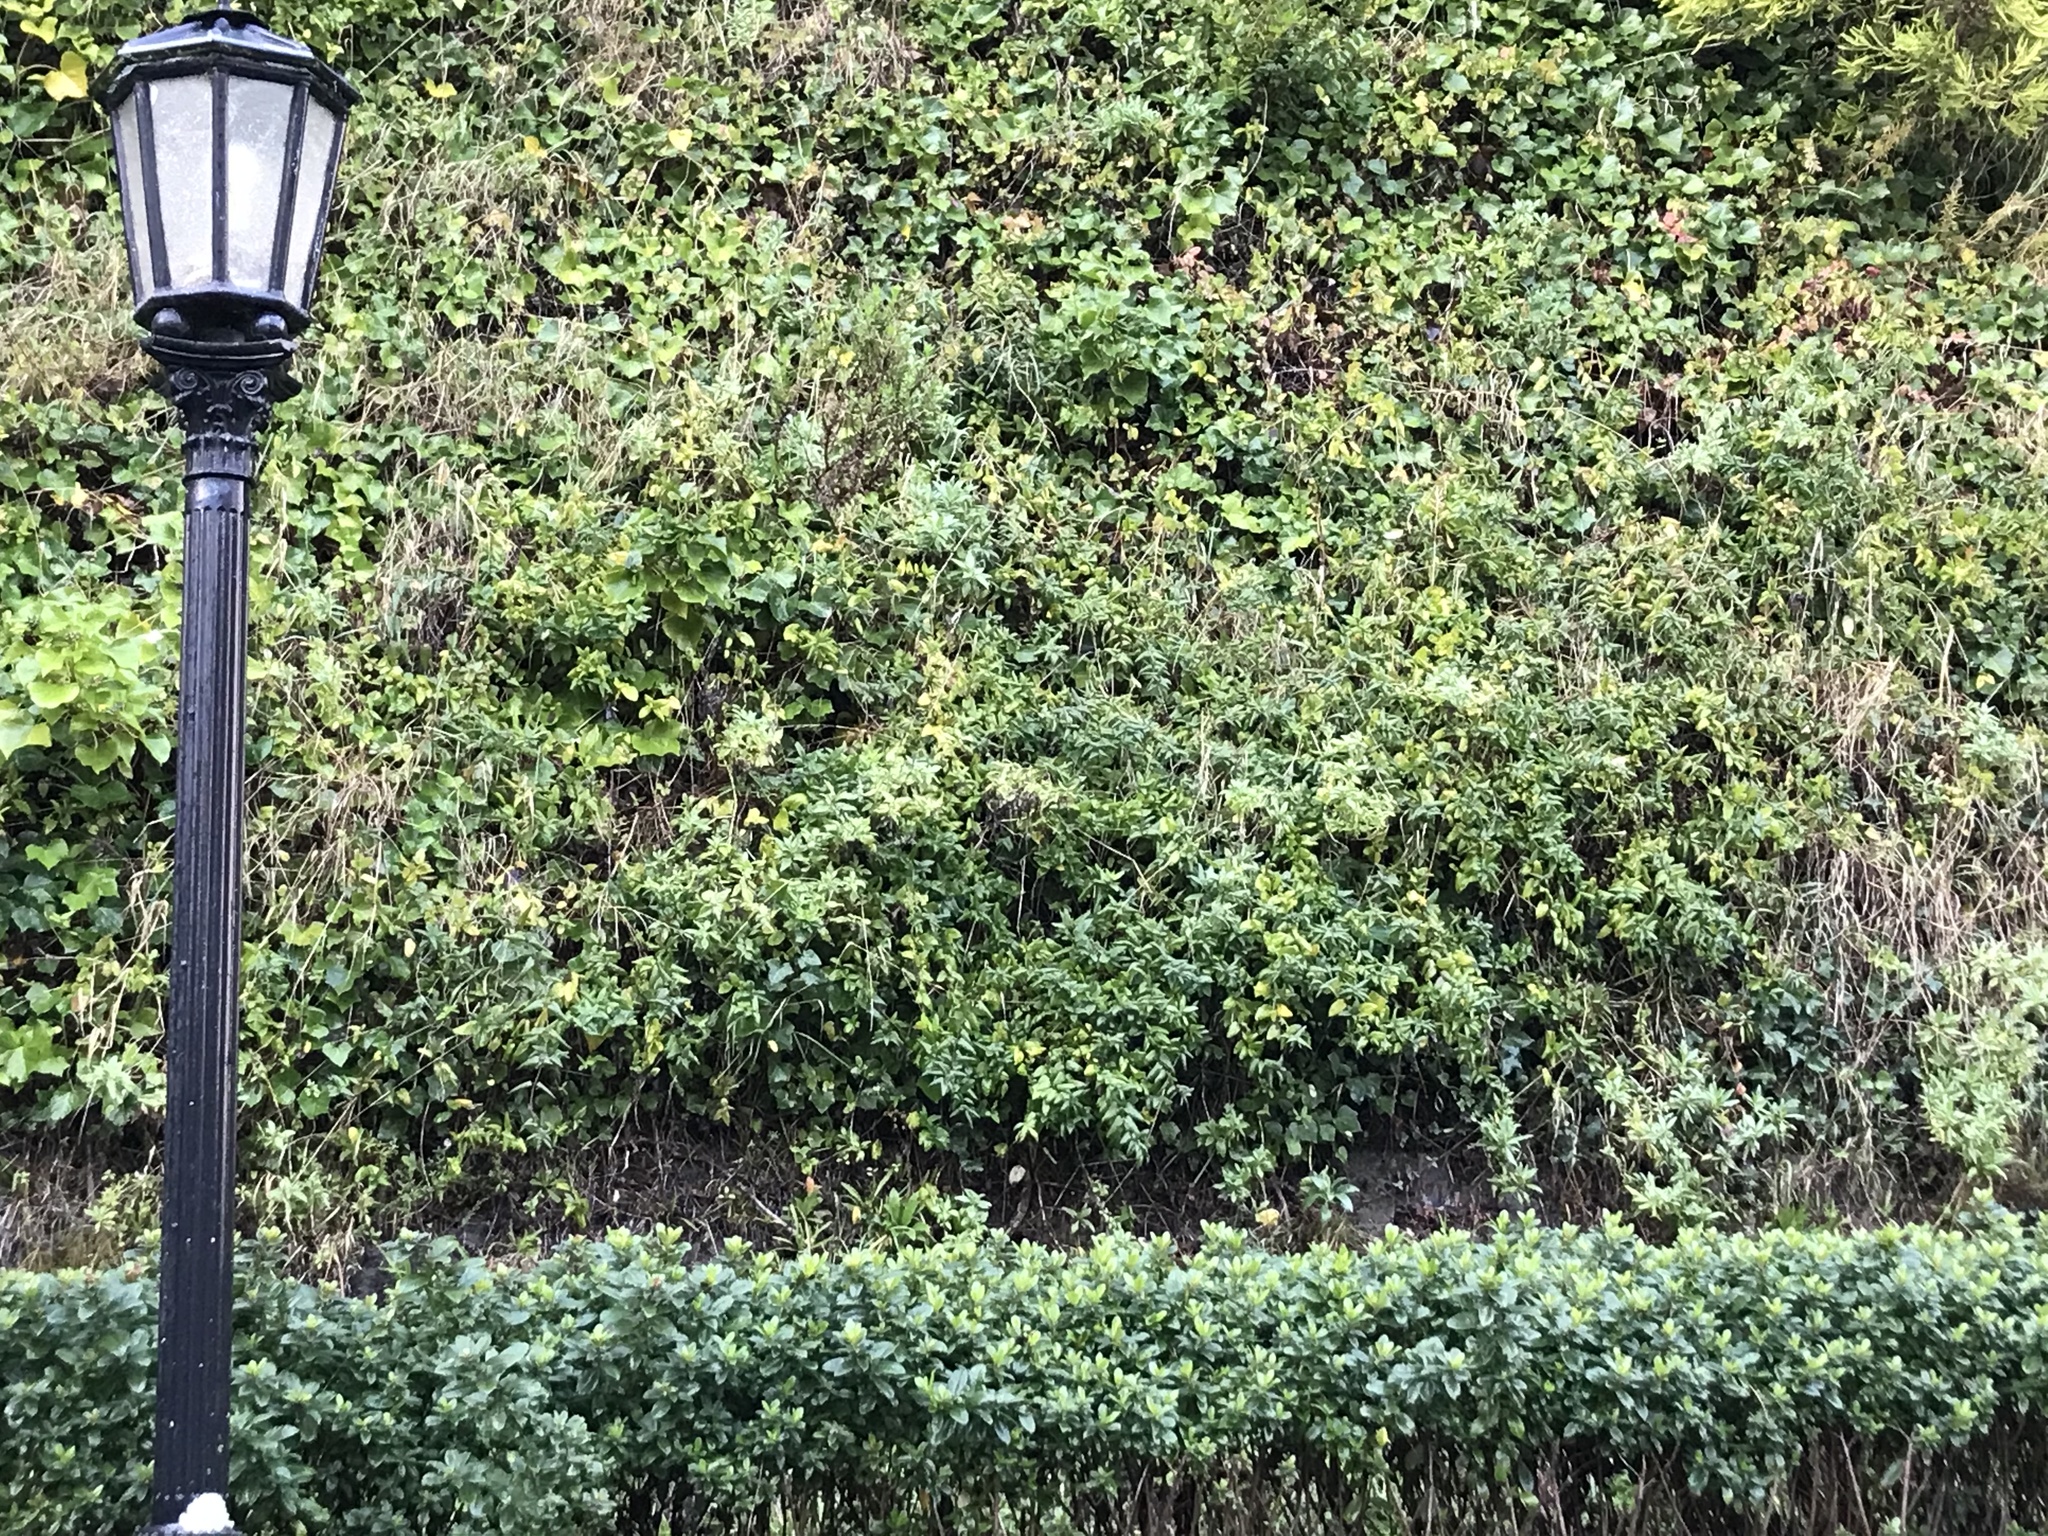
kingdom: Plantae
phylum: Tracheophyta
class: Magnoliopsida
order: Dipsacales
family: Caprifoliaceae
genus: Lonicera
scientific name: Lonicera japonica
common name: Japanese honeysuckle
